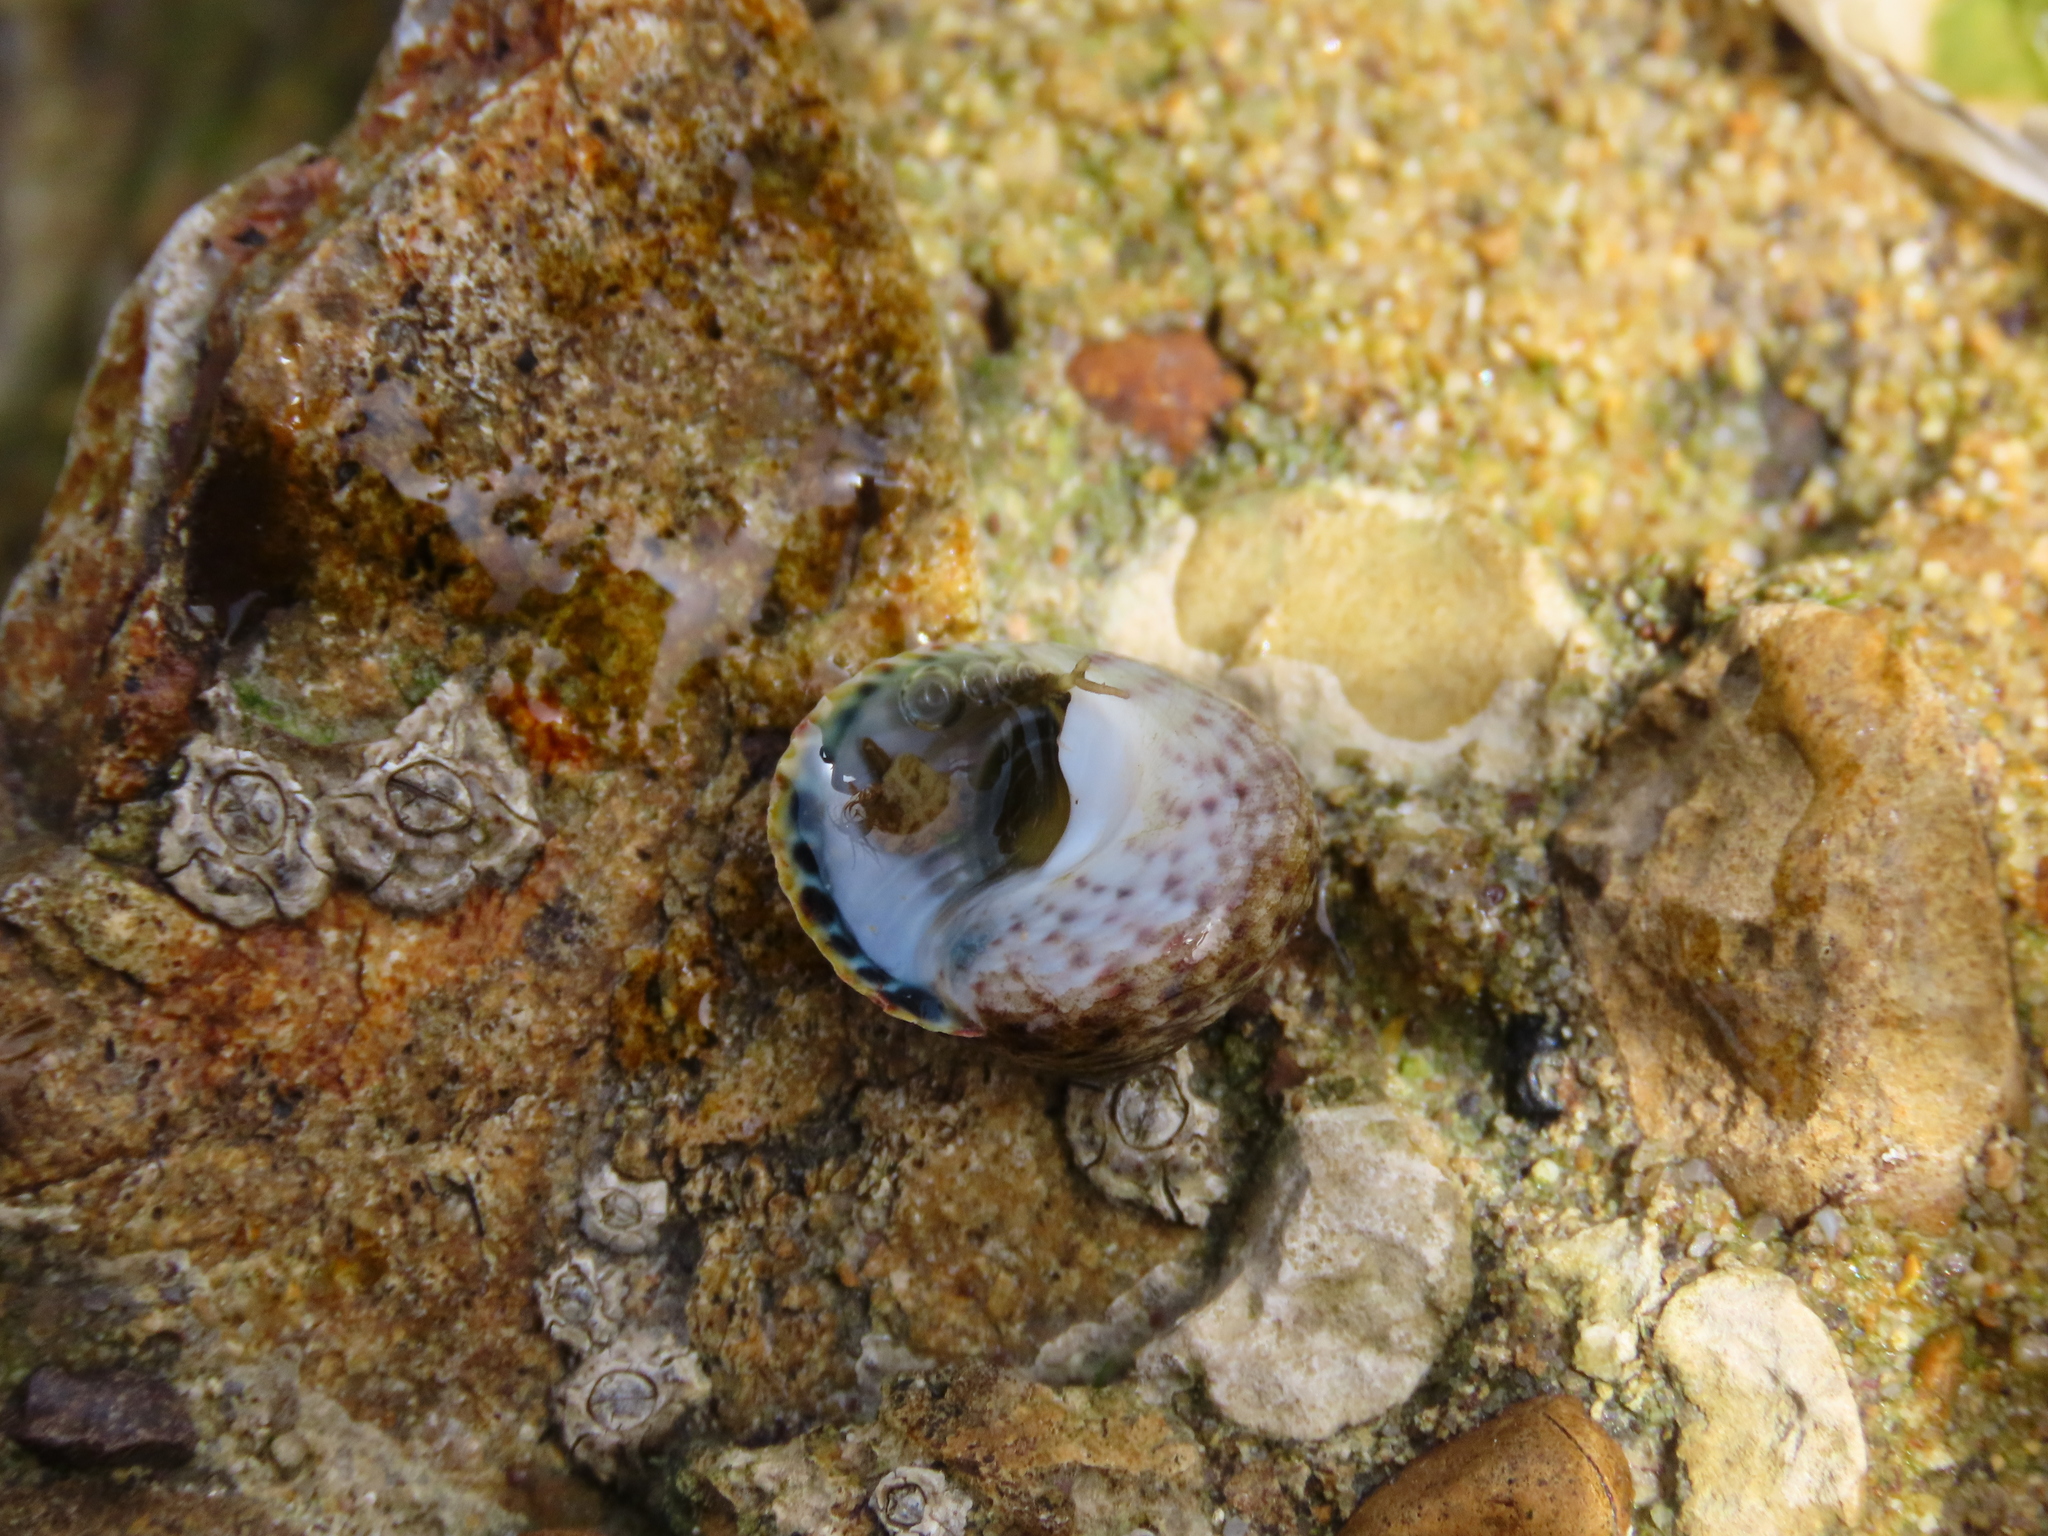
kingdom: Animalia
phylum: Mollusca
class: Gastropoda
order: Trochida
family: Trochidae
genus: Phorcus
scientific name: Phorcus turbinatus
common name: Turbinate monodont
